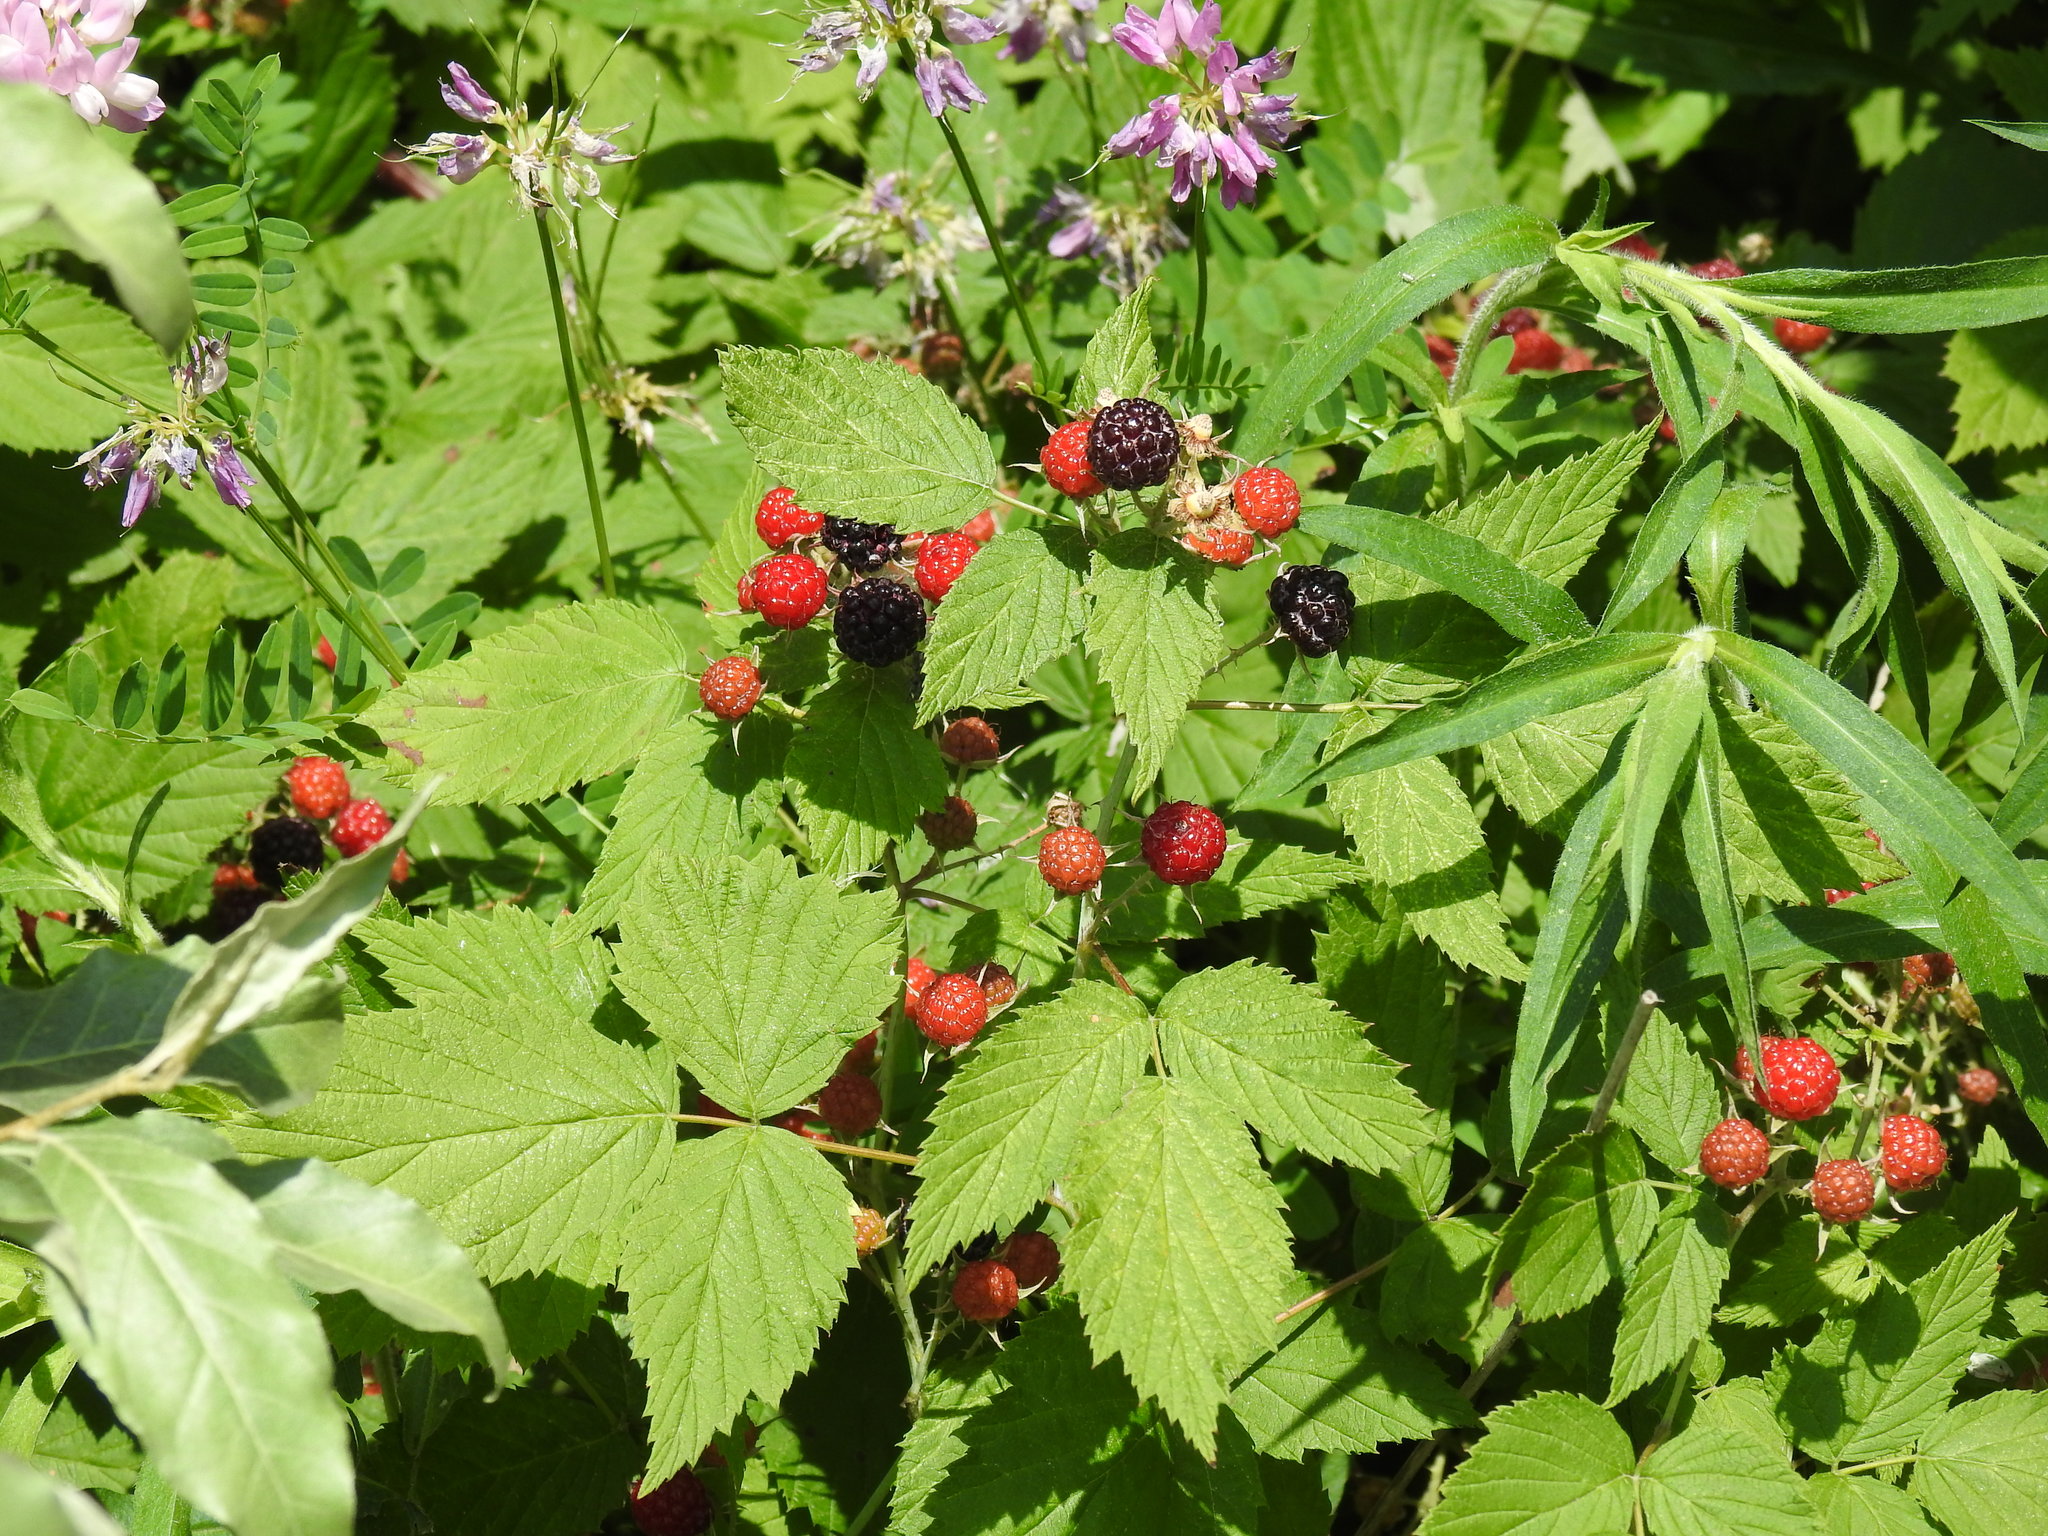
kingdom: Plantae
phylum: Tracheophyta
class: Magnoliopsida
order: Rosales
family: Rosaceae
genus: Rubus
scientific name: Rubus occidentalis
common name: Black raspberry
